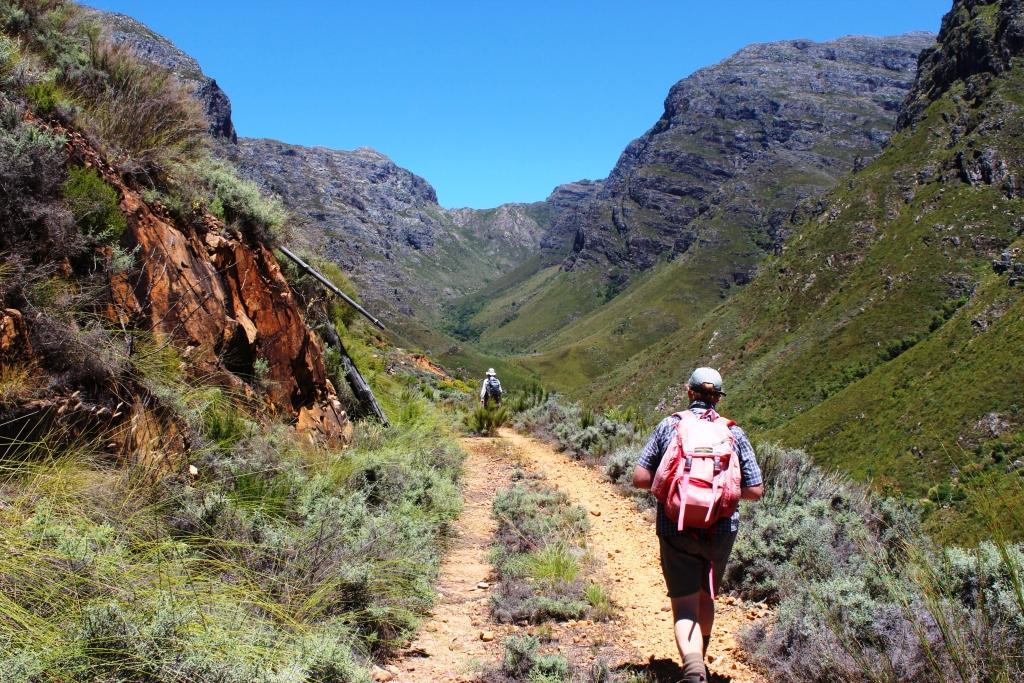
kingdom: Plantae
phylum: Tracheophyta
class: Magnoliopsida
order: Asterales
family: Asteraceae
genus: Seriphium
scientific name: Seriphium plumosum
